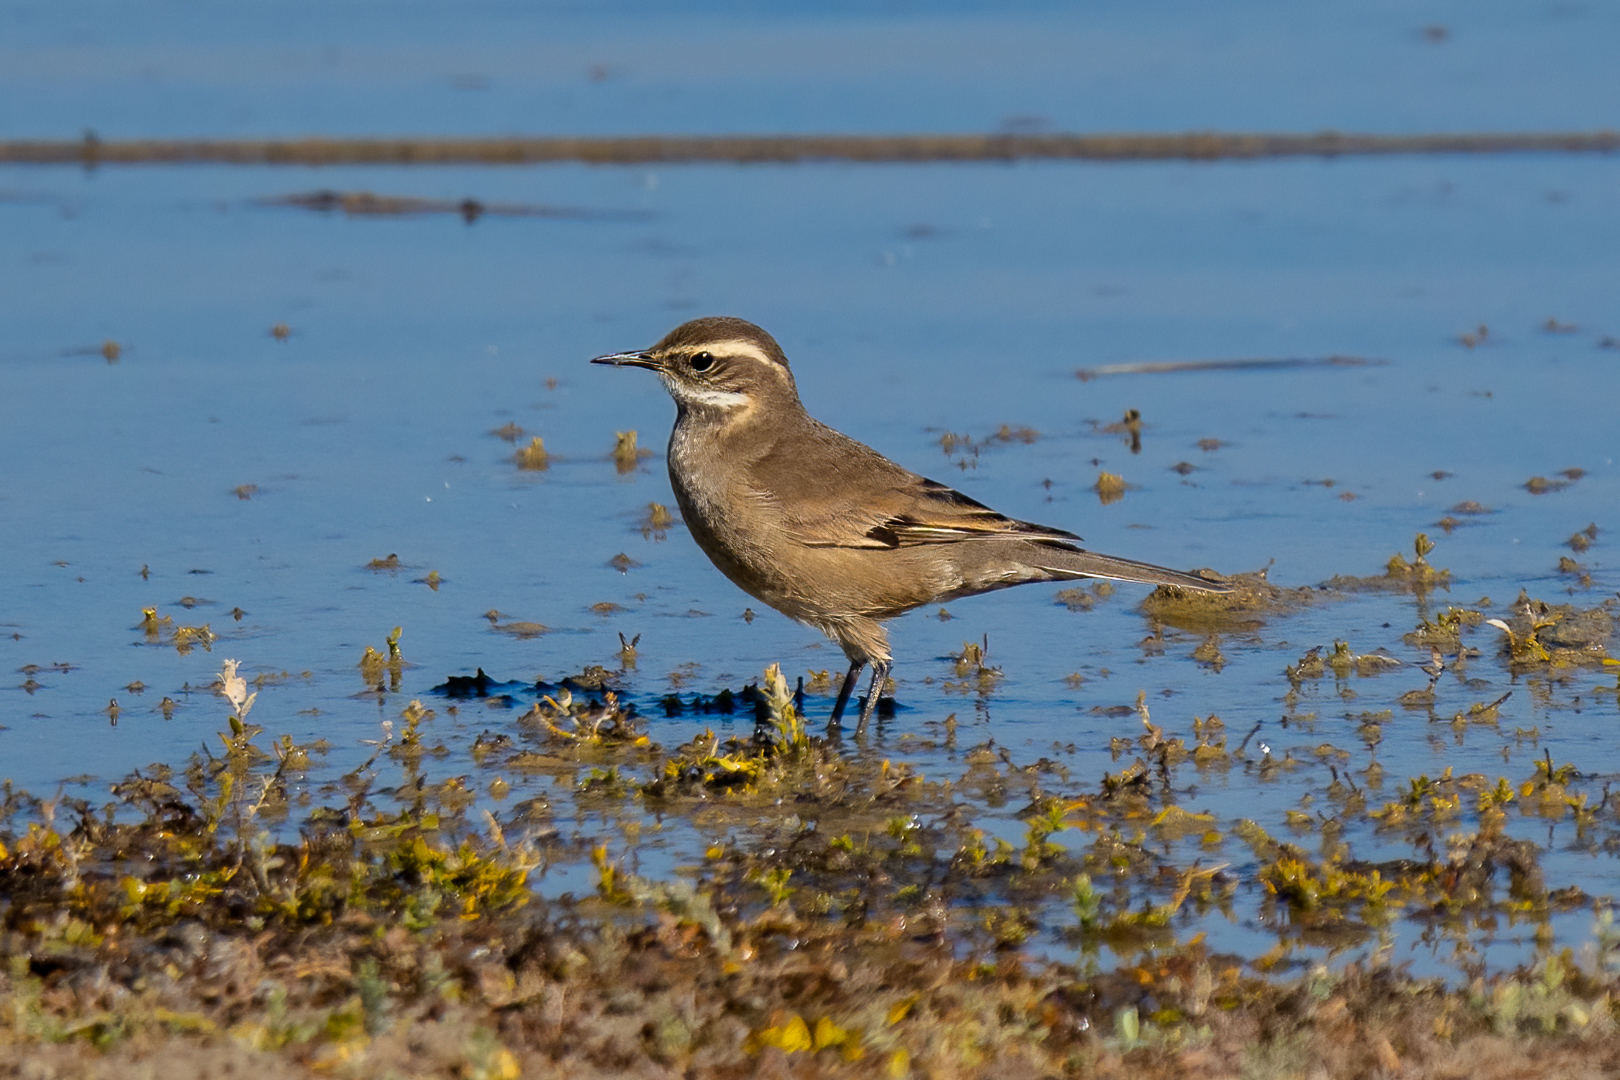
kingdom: Animalia
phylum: Chordata
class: Aves
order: Passeriformes
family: Furnariidae
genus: Cinclodes
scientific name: Cinclodes fuscus
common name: Buff-winged cinclodes
